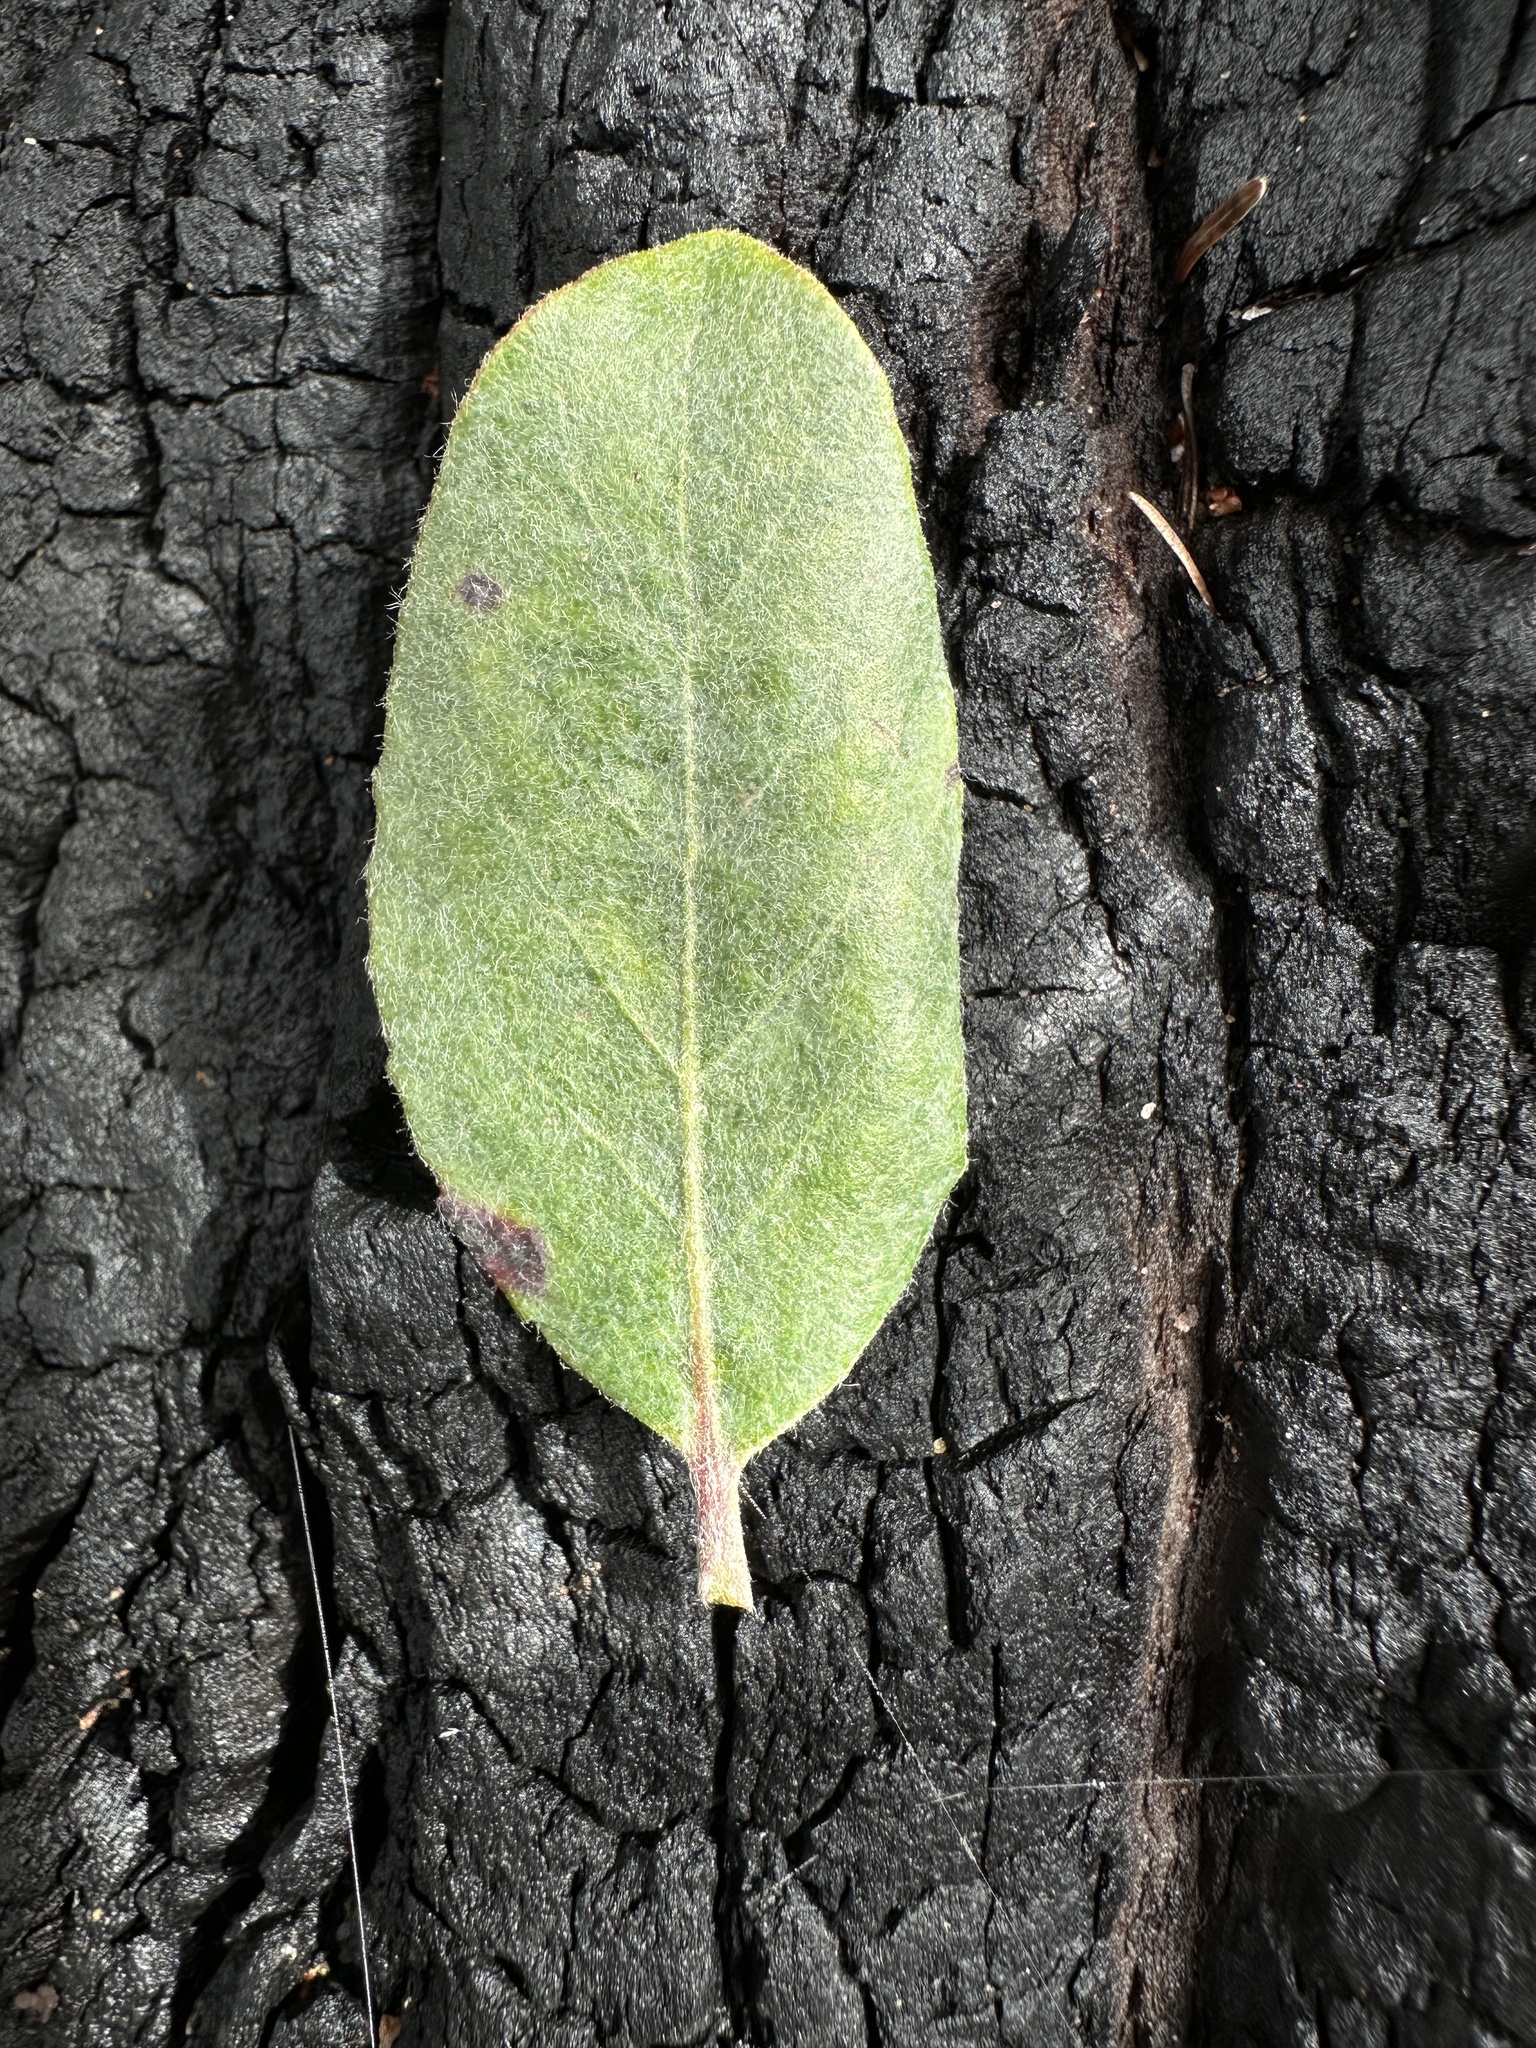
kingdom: Plantae
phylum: Tracheophyta
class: Magnoliopsida
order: Ericales
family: Ericaceae
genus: Arctostaphylos
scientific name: Arctostaphylos andersonii
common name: Santa cruz manzanita
